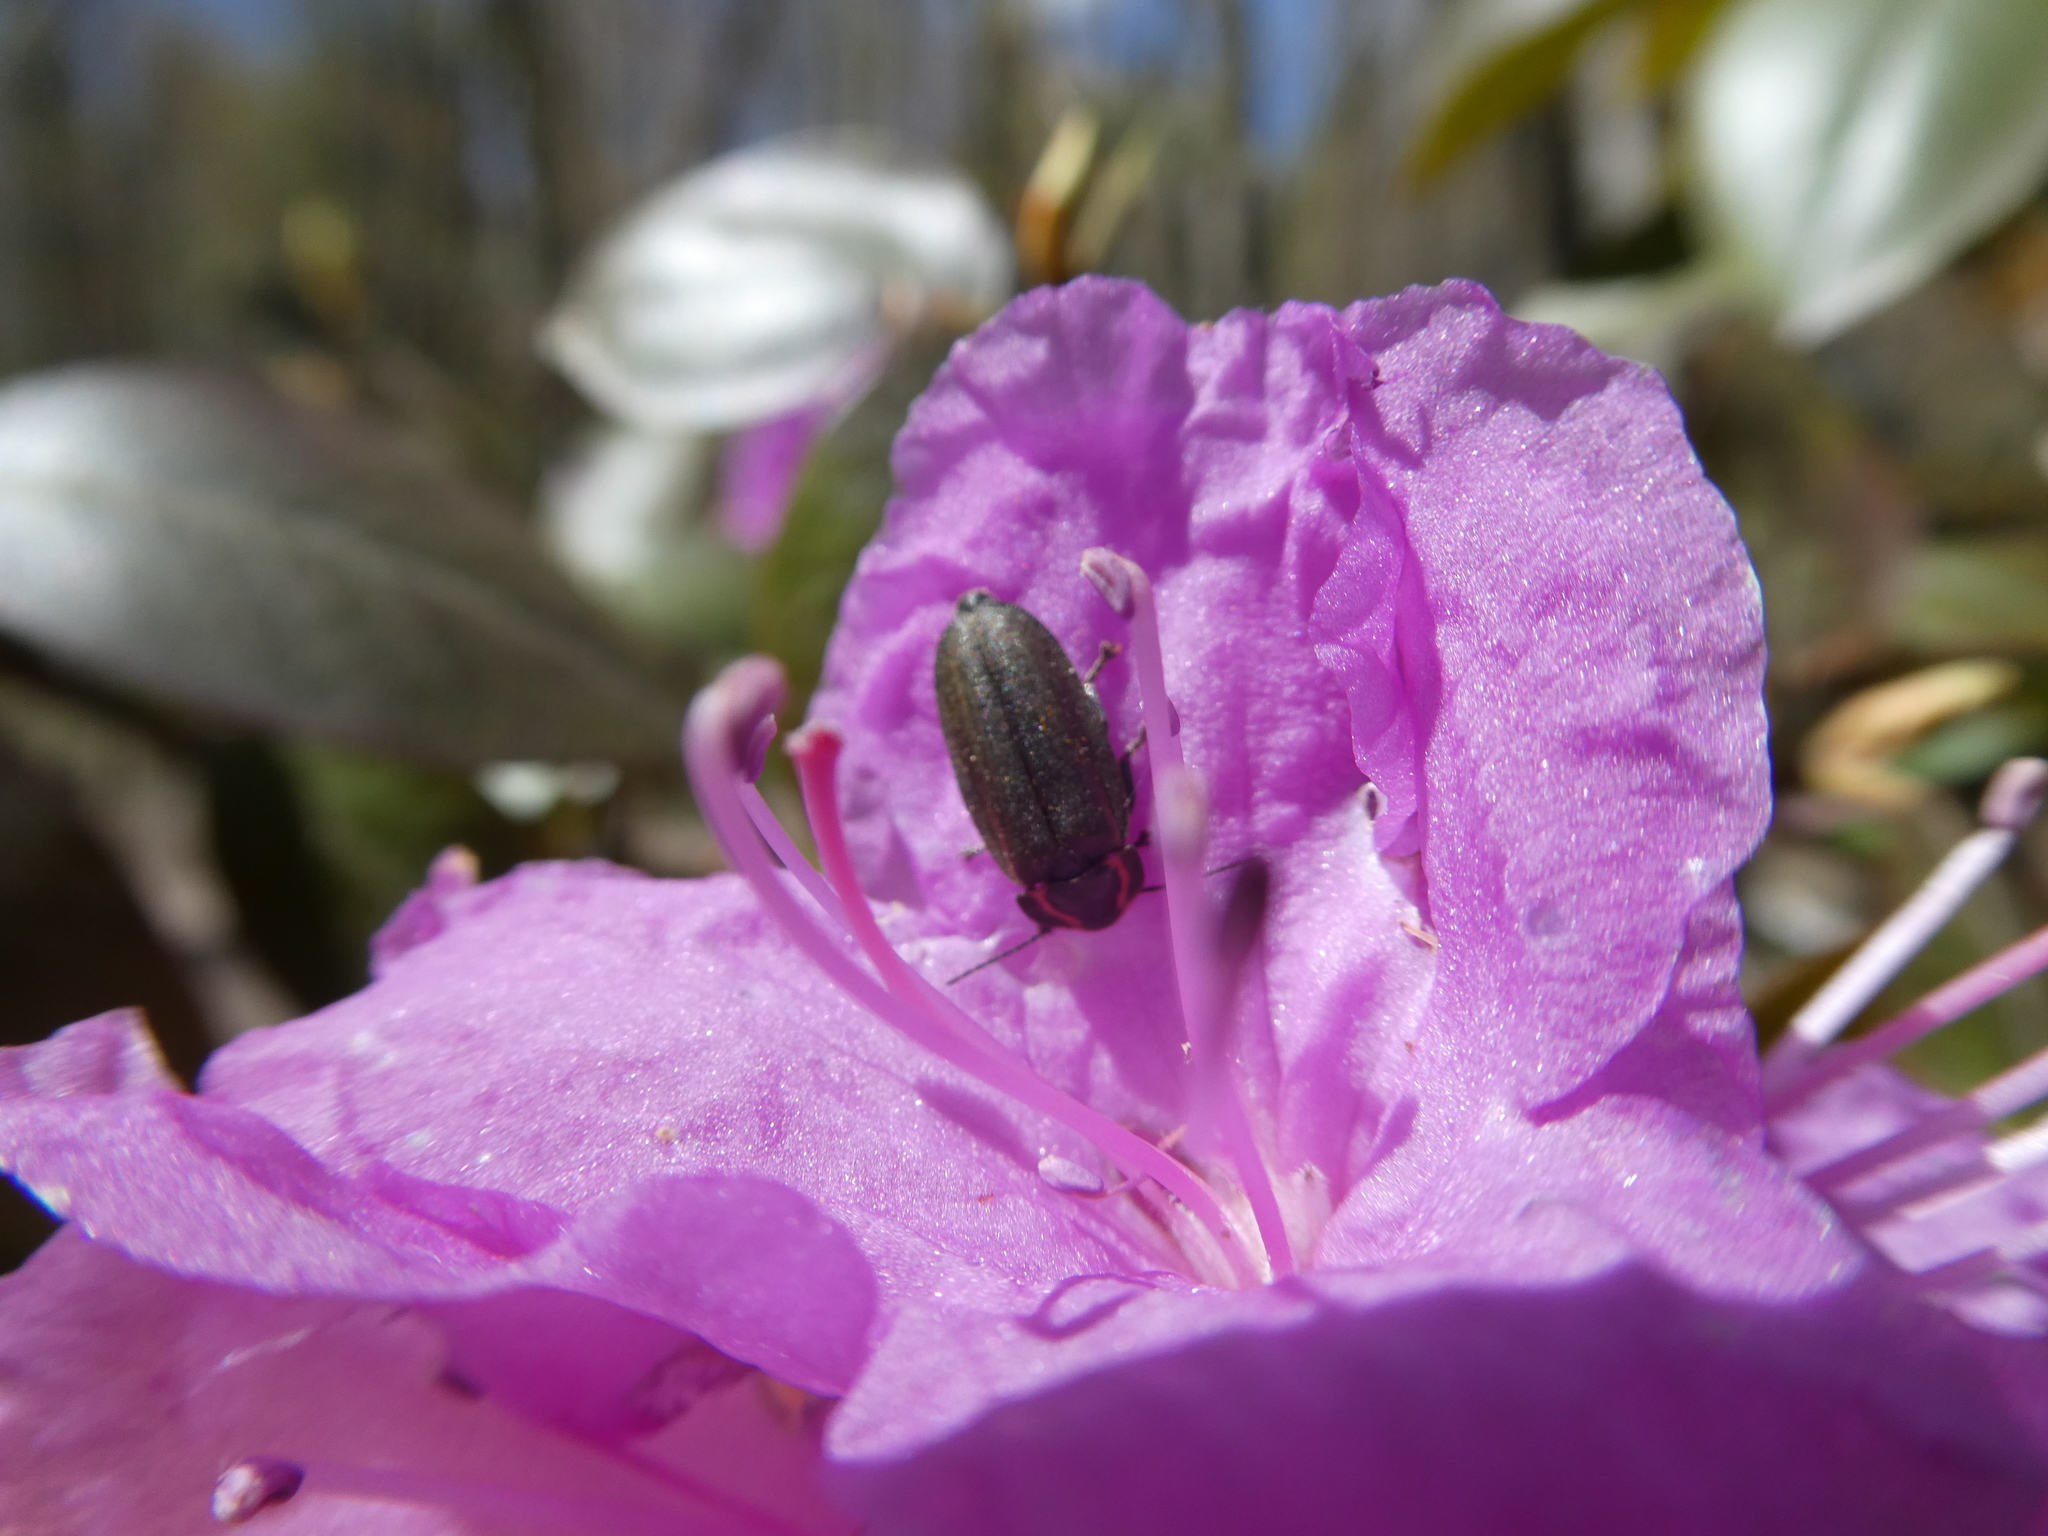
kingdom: Animalia
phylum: Arthropoda
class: Insecta
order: Coleoptera
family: Lampyridae
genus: Photinus
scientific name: Photinus corrusca
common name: Winter firefly
